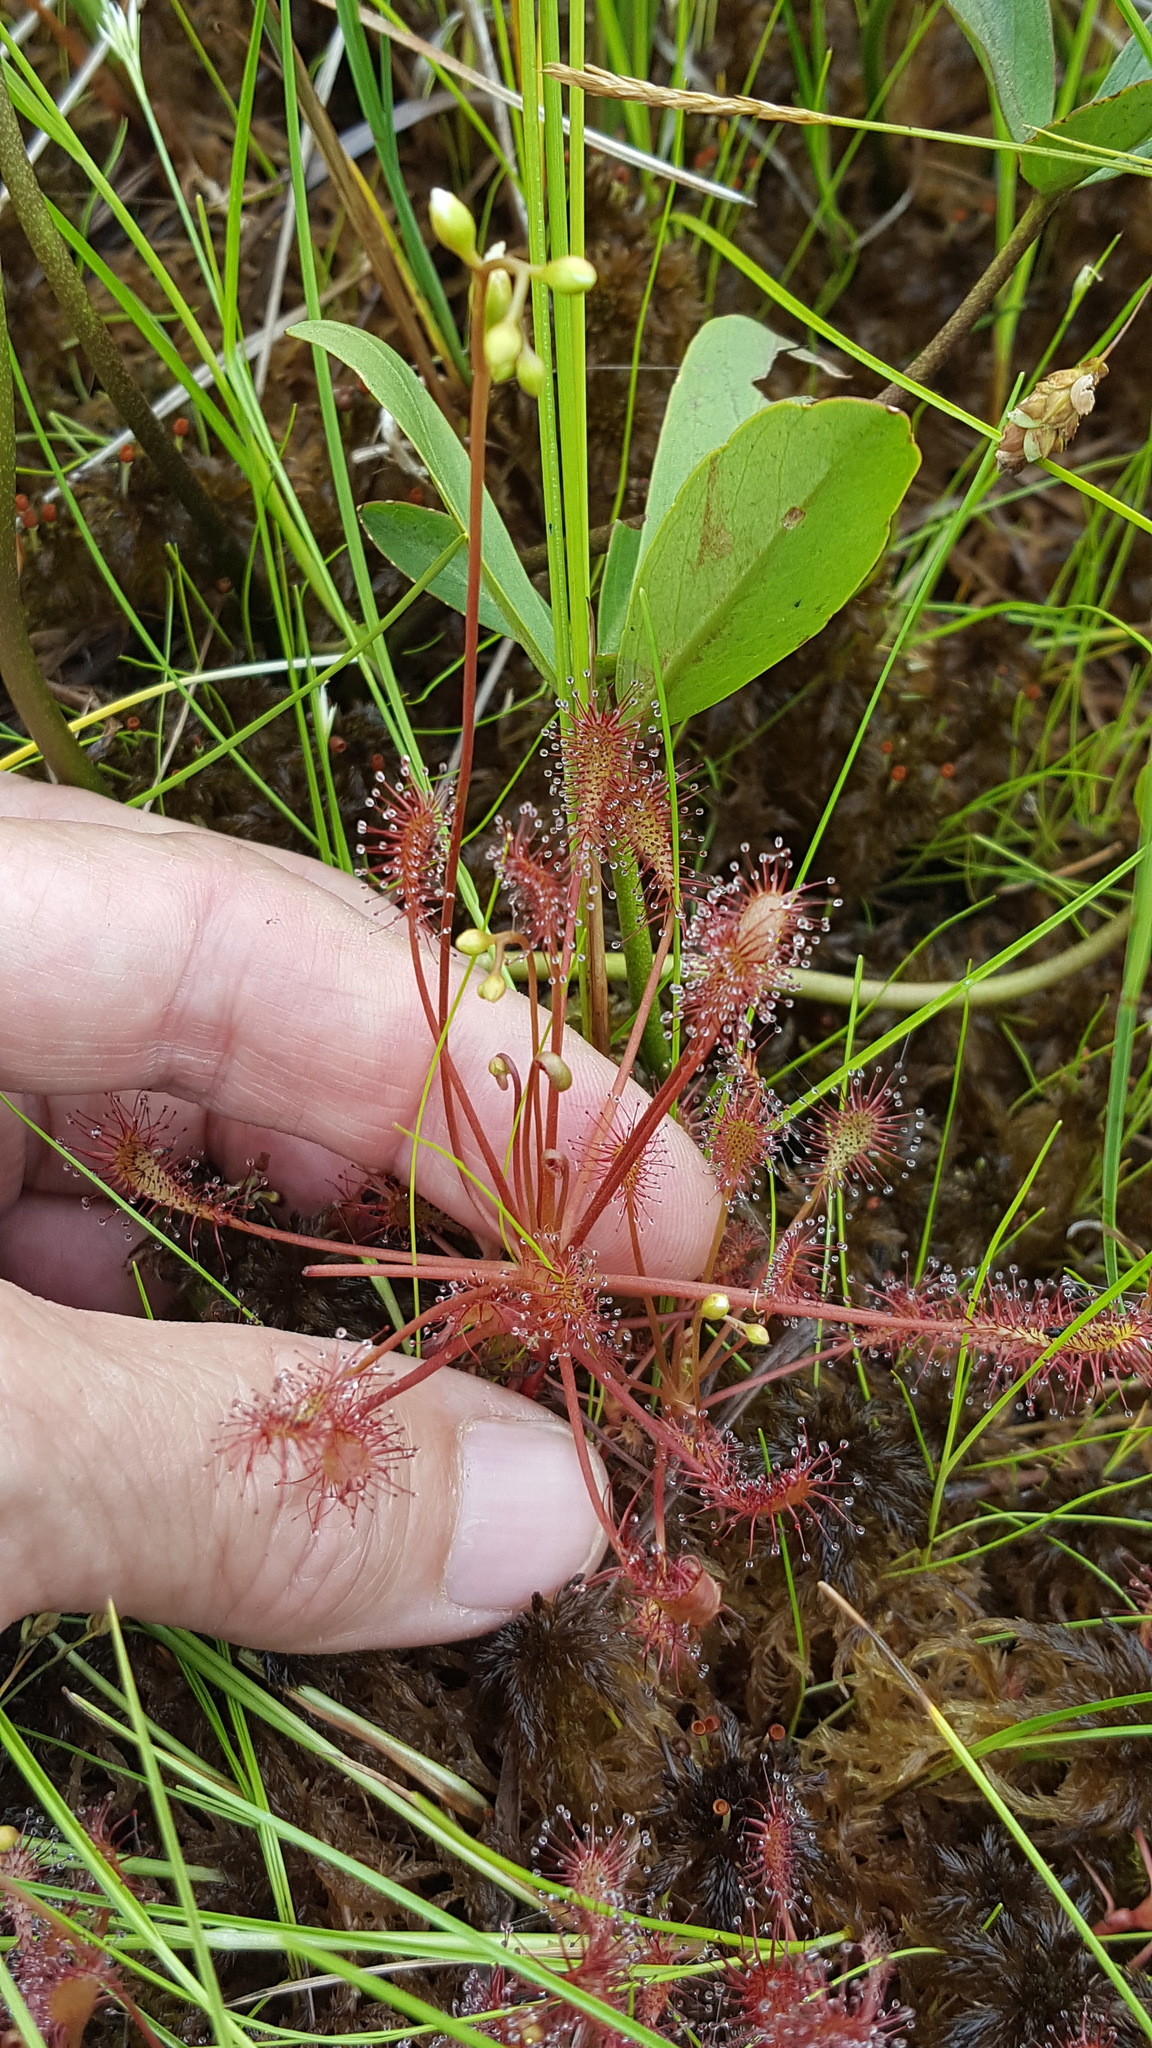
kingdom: Plantae
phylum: Tracheophyta
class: Magnoliopsida
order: Caryophyllales
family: Droseraceae
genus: Drosera
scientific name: Drosera intermedia
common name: Oblong-leaved sundew
